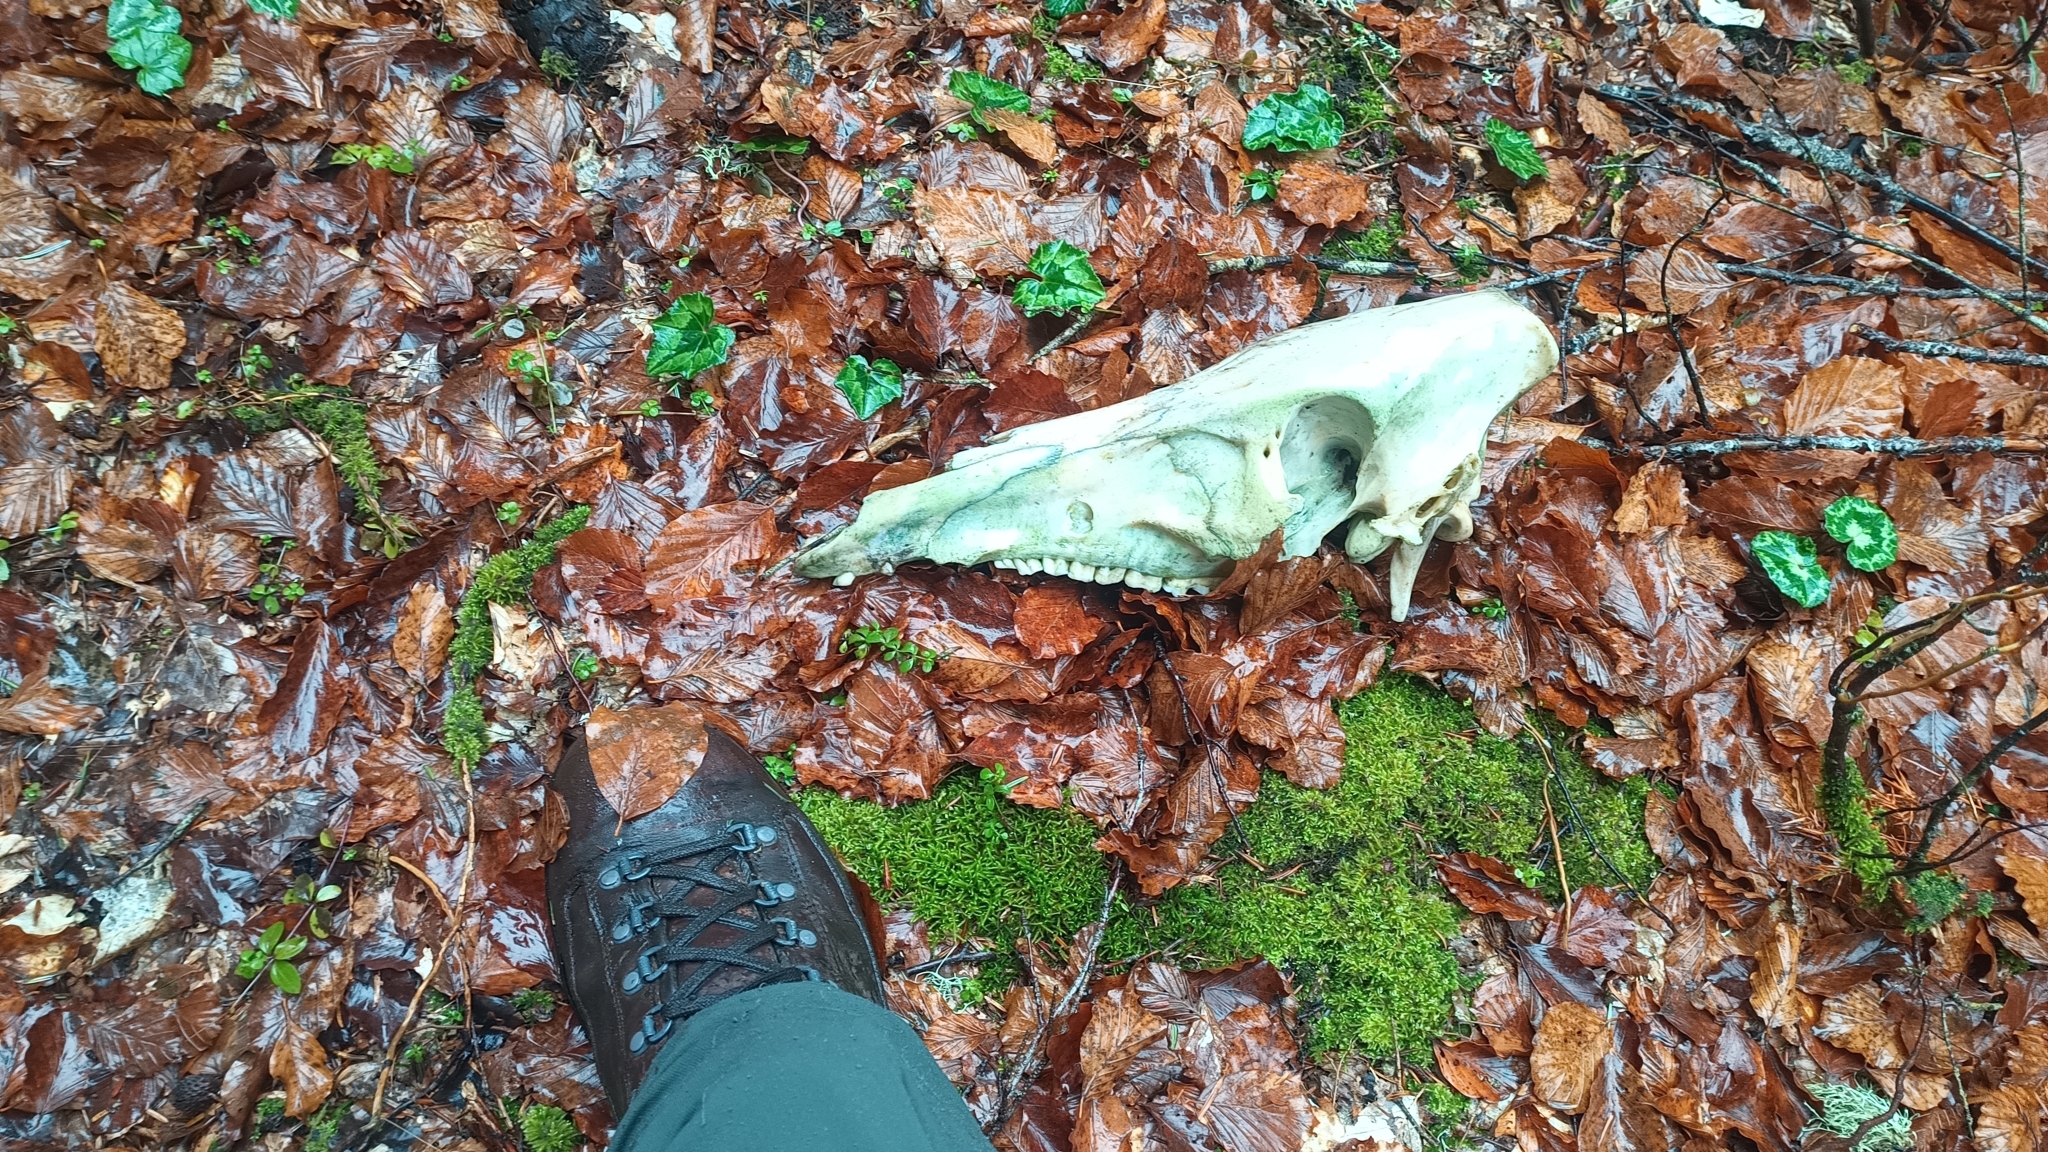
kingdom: Animalia
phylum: Chordata
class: Mammalia
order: Artiodactyla
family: Suidae
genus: Sus
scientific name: Sus scrofa
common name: Wild boar
